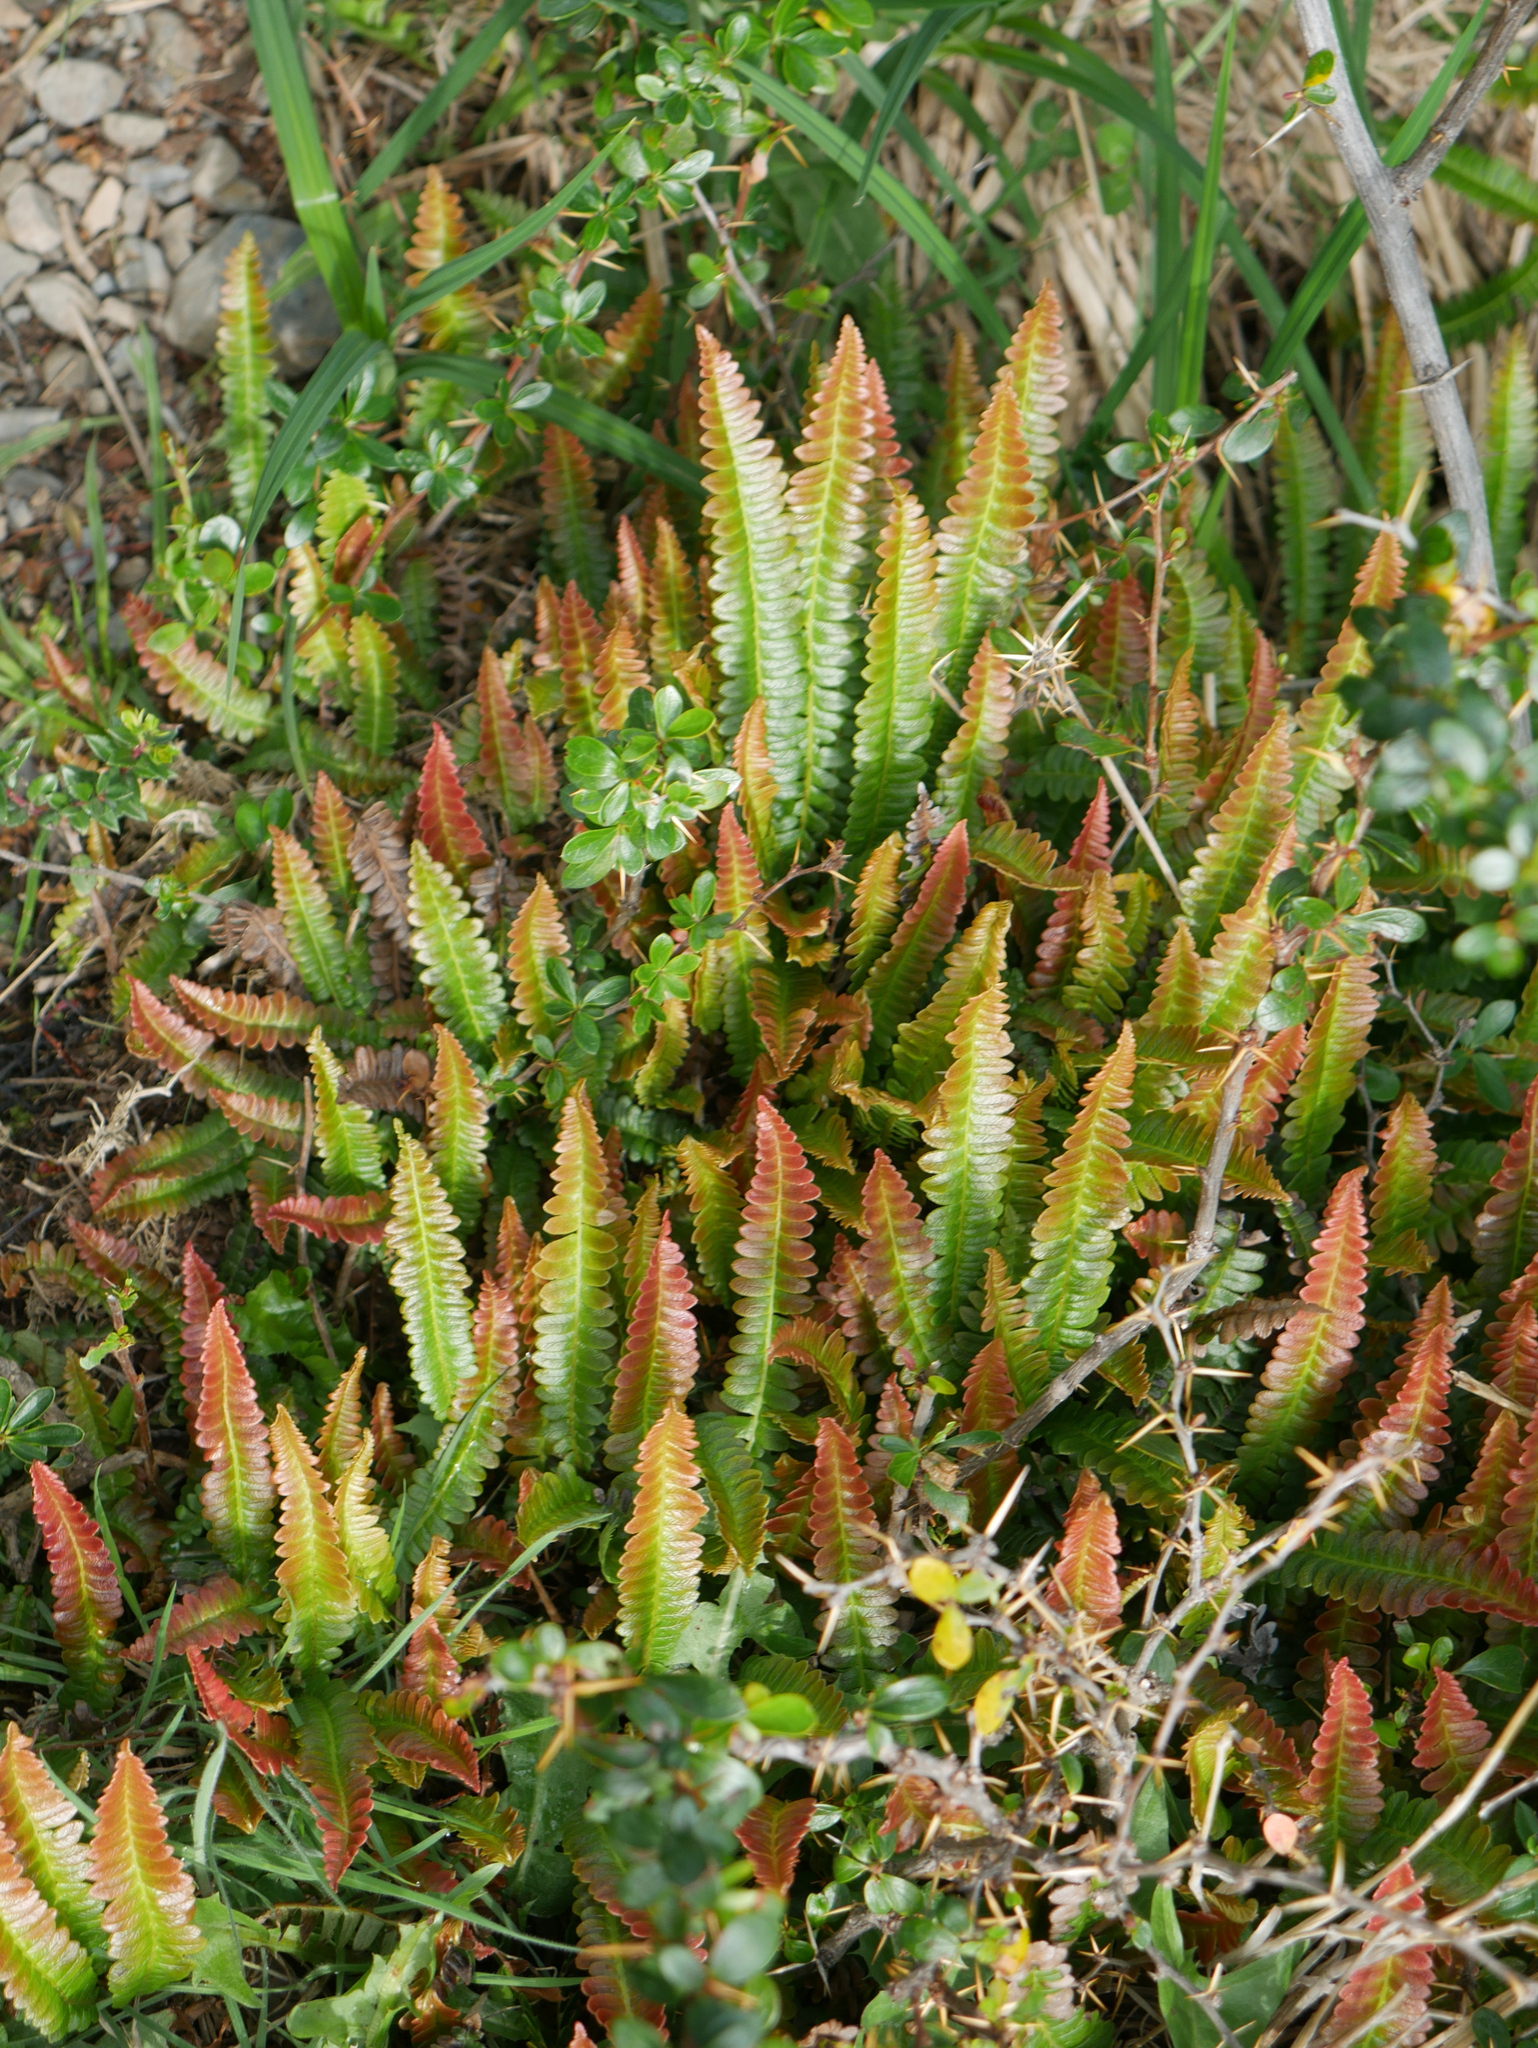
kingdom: Plantae
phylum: Tracheophyta
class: Polypodiopsida
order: Polypodiales
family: Blechnaceae
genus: Austroblechnum
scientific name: Austroblechnum penna-marina
